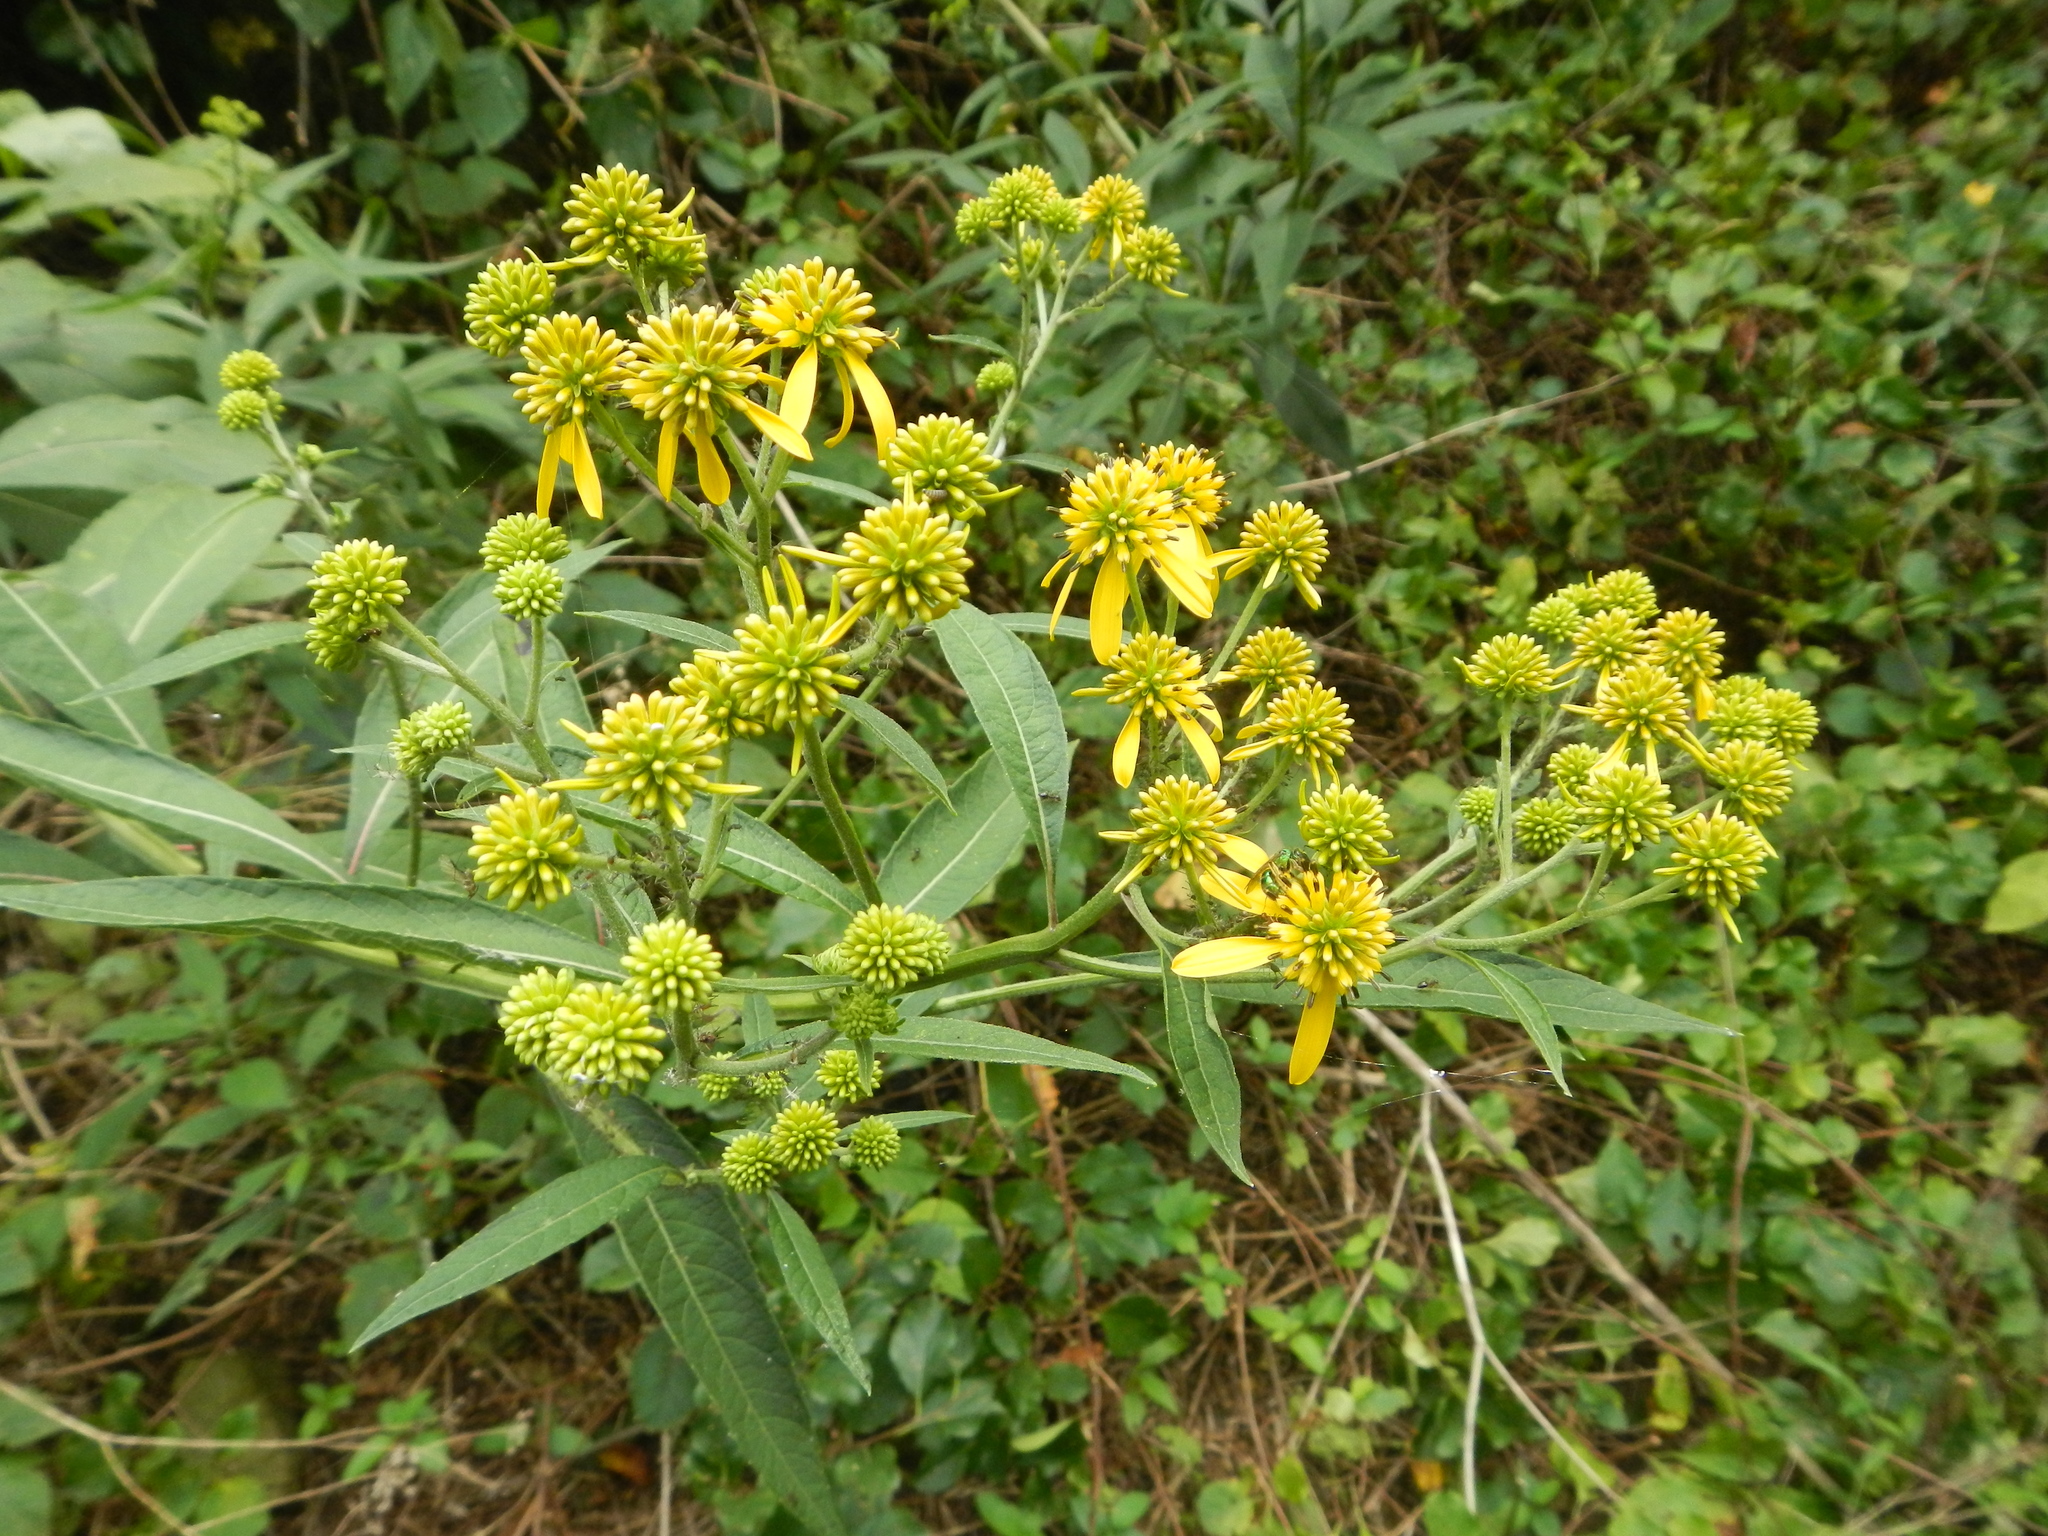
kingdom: Plantae
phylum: Tracheophyta
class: Magnoliopsida
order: Asterales
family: Asteraceae
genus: Verbesina
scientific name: Verbesina alternifolia
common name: Wingstem
